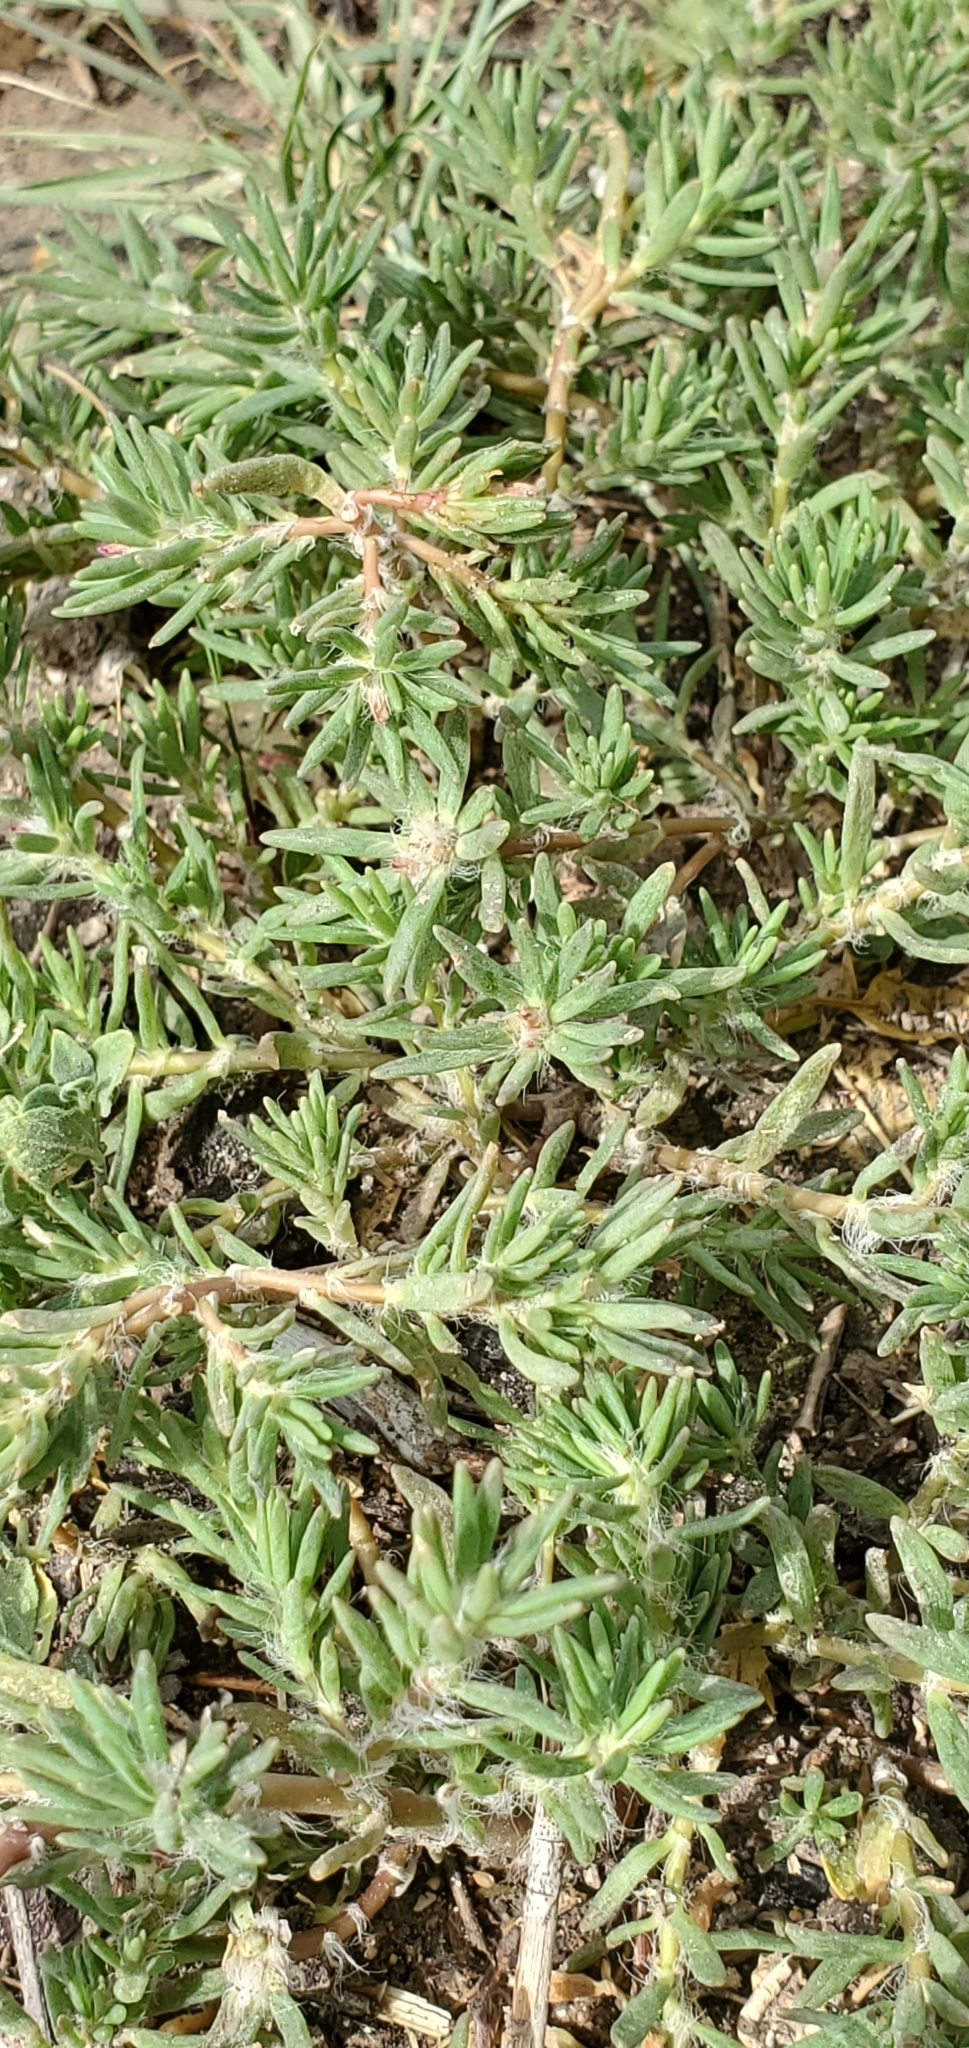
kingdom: Plantae
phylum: Tracheophyta
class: Magnoliopsida
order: Caryophyllales
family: Portulacaceae
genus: Portulaca
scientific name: Portulaca pilosa
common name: Kiss me quick
